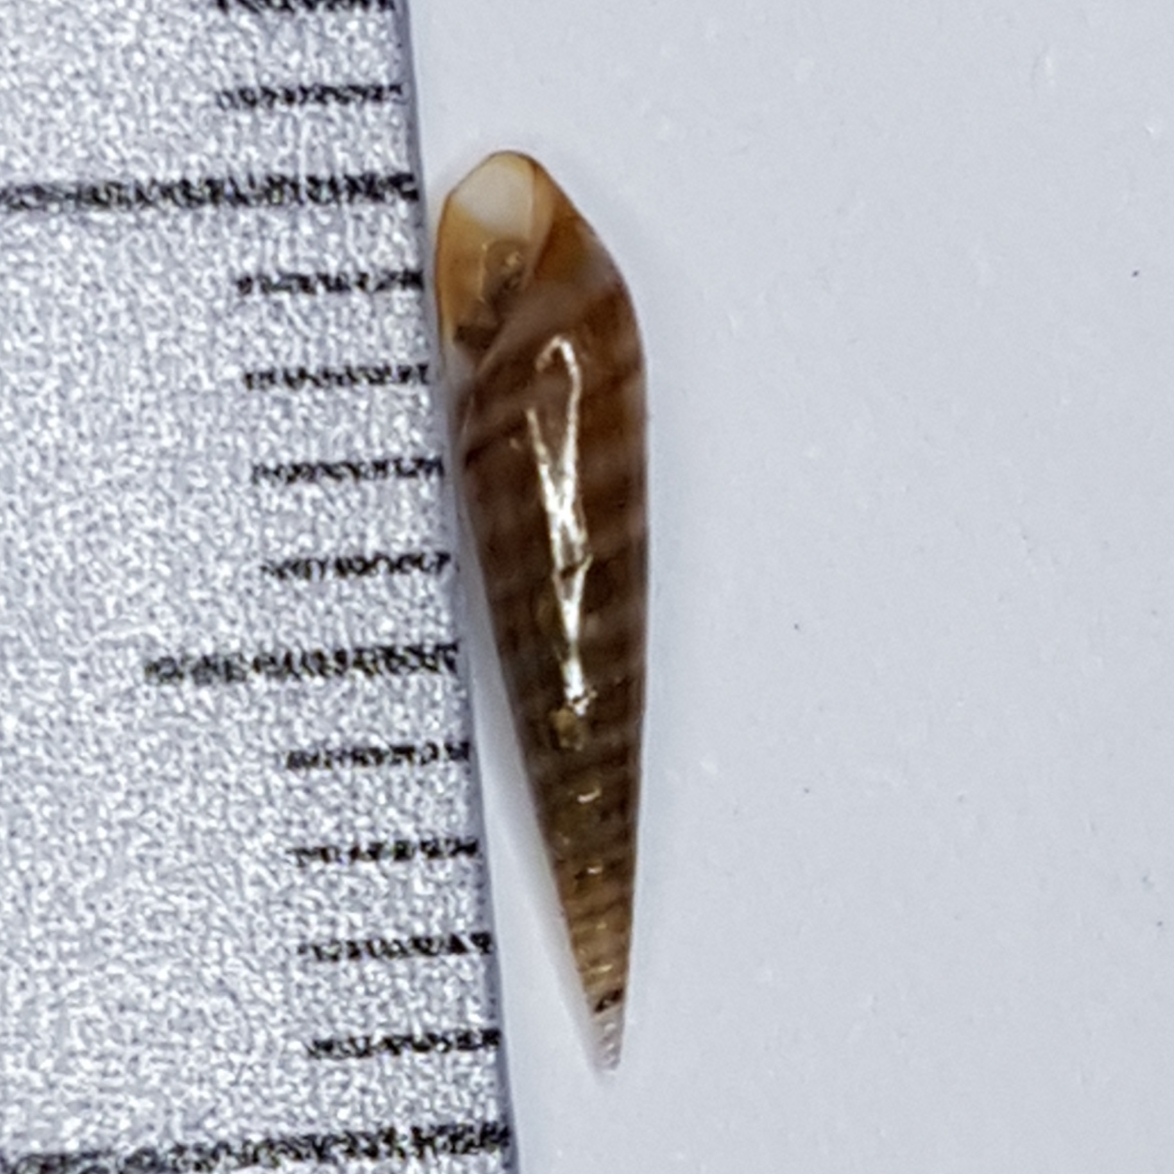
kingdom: Animalia
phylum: Mollusca
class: Gastropoda
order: Littorinimorpha
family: Eulimidae
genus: Eulima
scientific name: Eulima glabra
